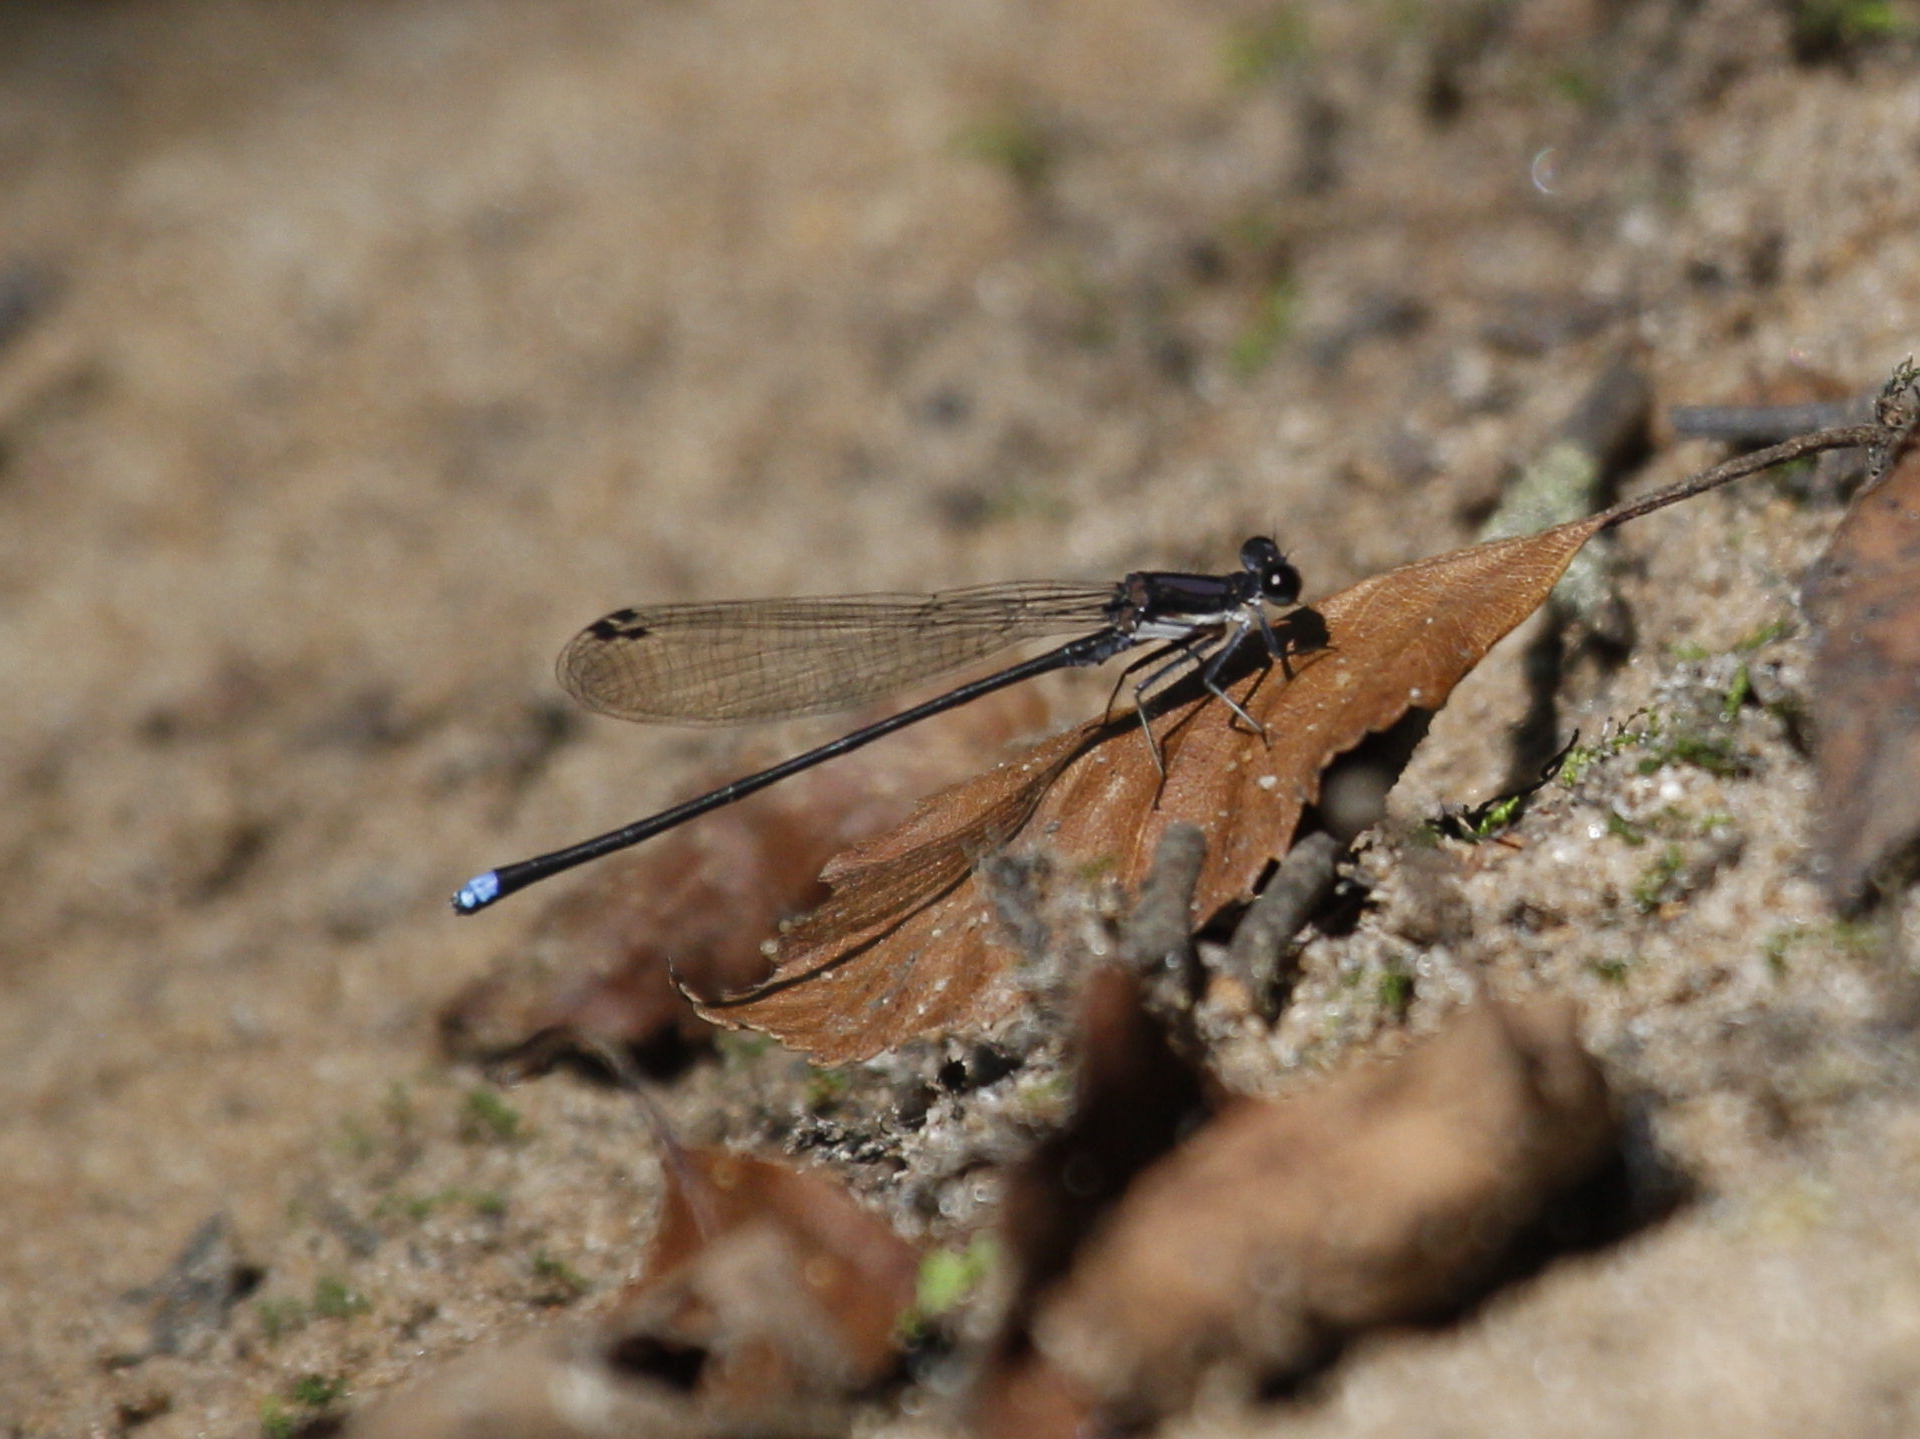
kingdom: Animalia
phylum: Arthropoda
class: Insecta
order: Odonata
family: Coenagrionidae
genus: Argia
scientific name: Argia tibialis
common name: Blue-tipped dancer
